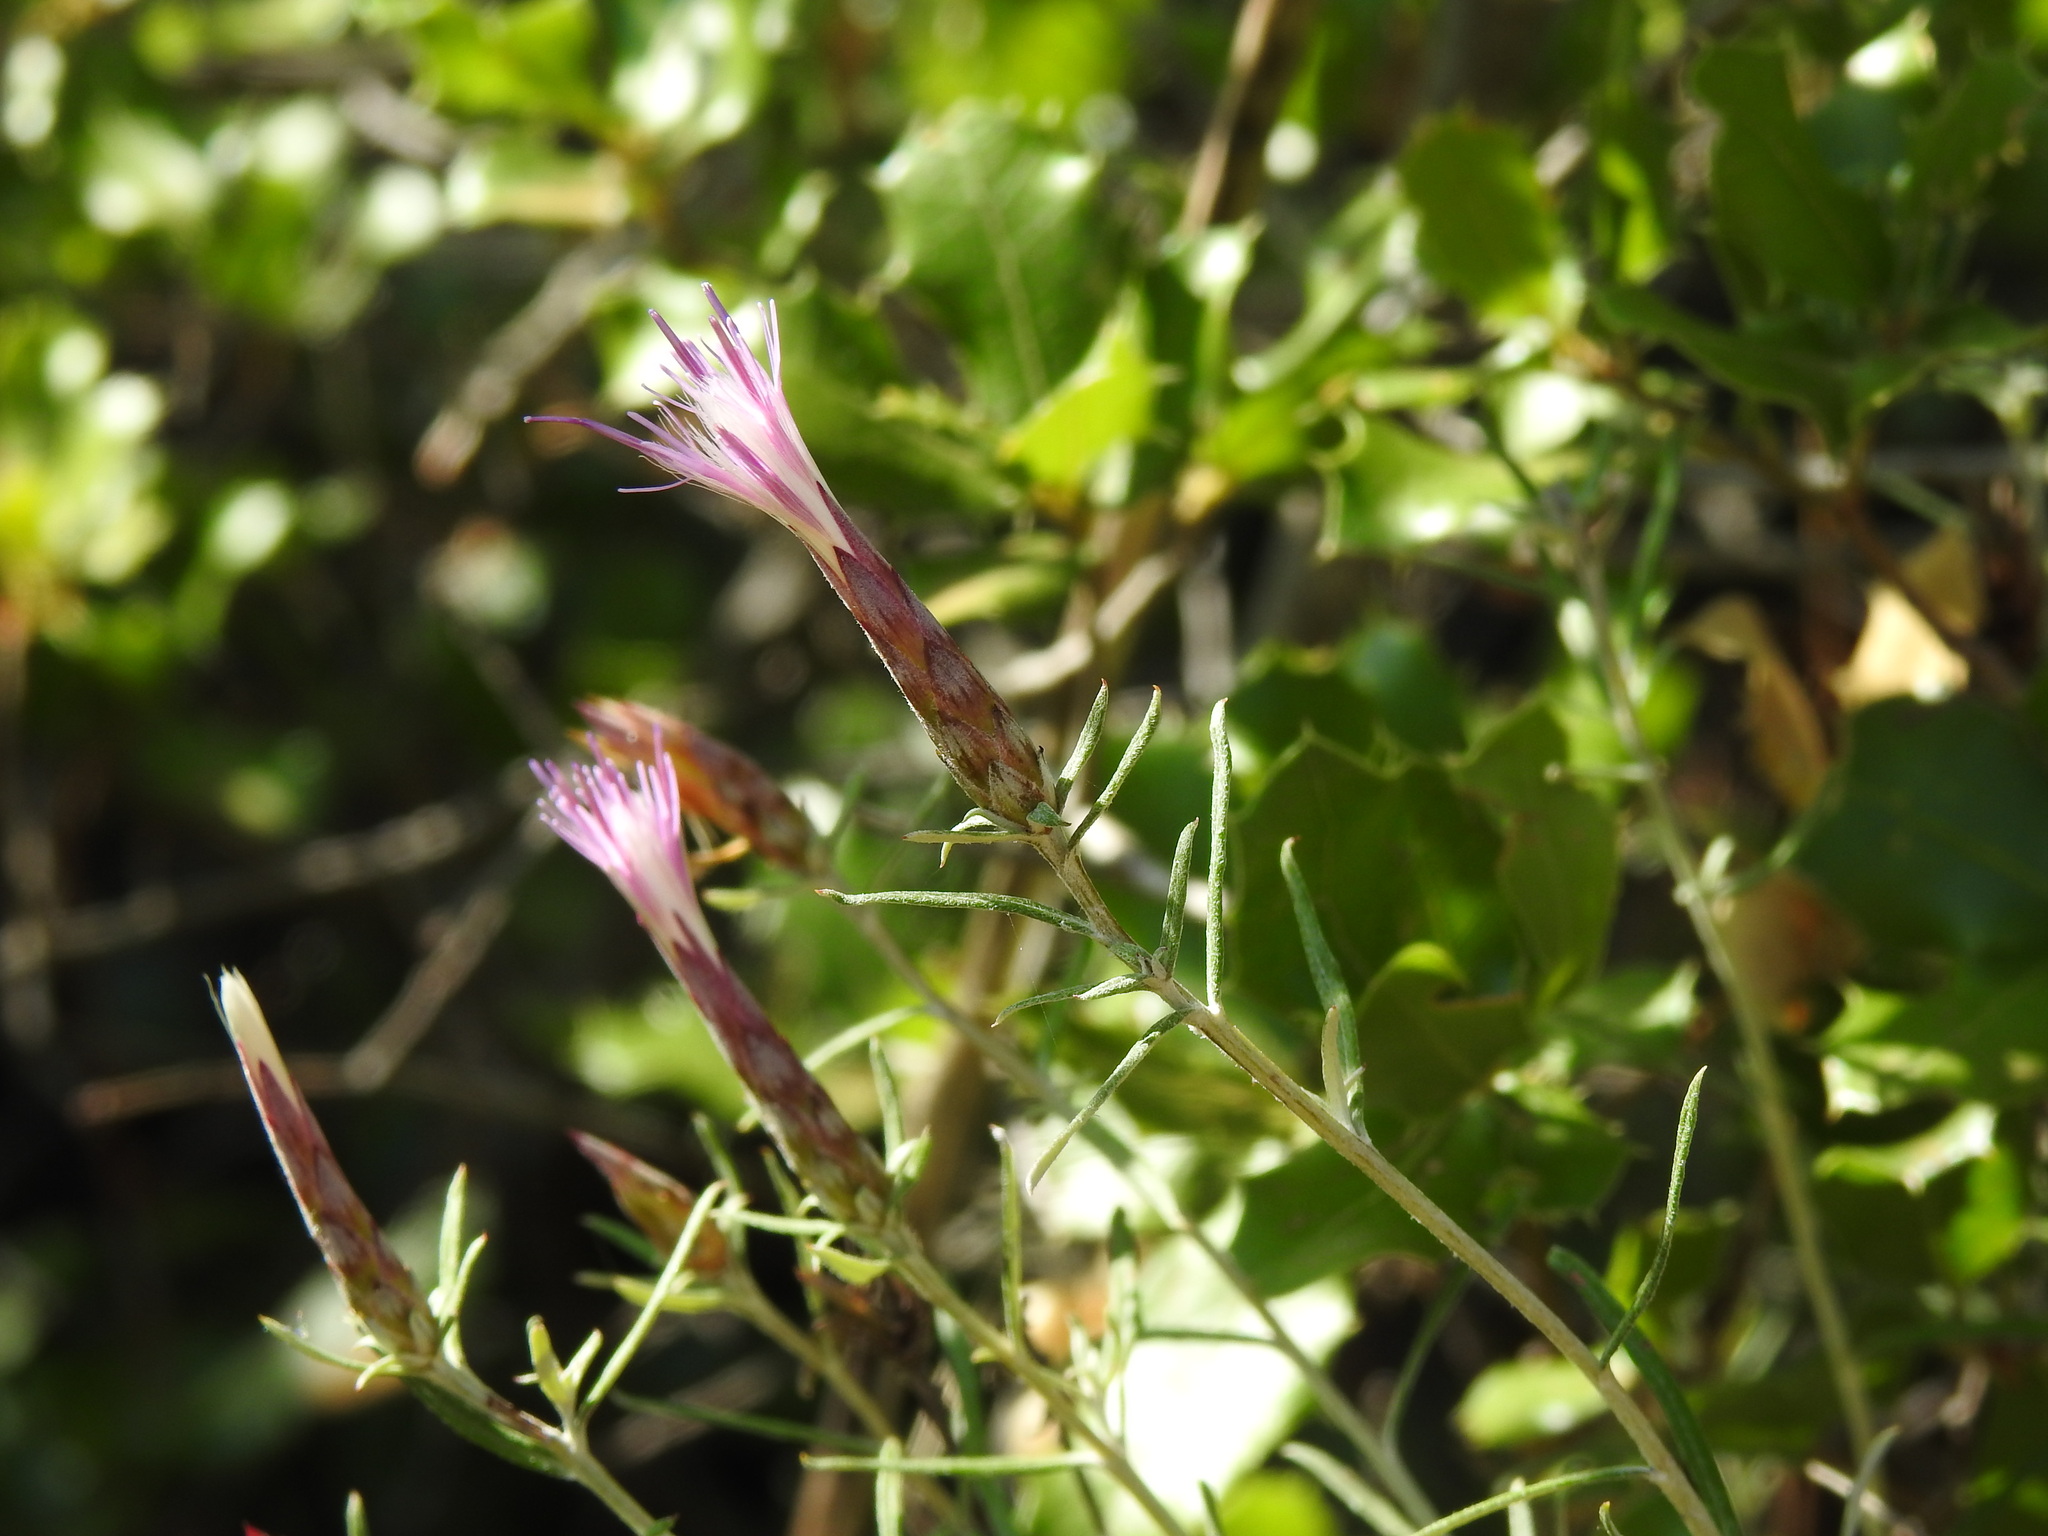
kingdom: Plantae
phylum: Tracheophyta
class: Magnoliopsida
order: Asterales
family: Asteraceae
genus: Staehelina
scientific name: Staehelina dubia
